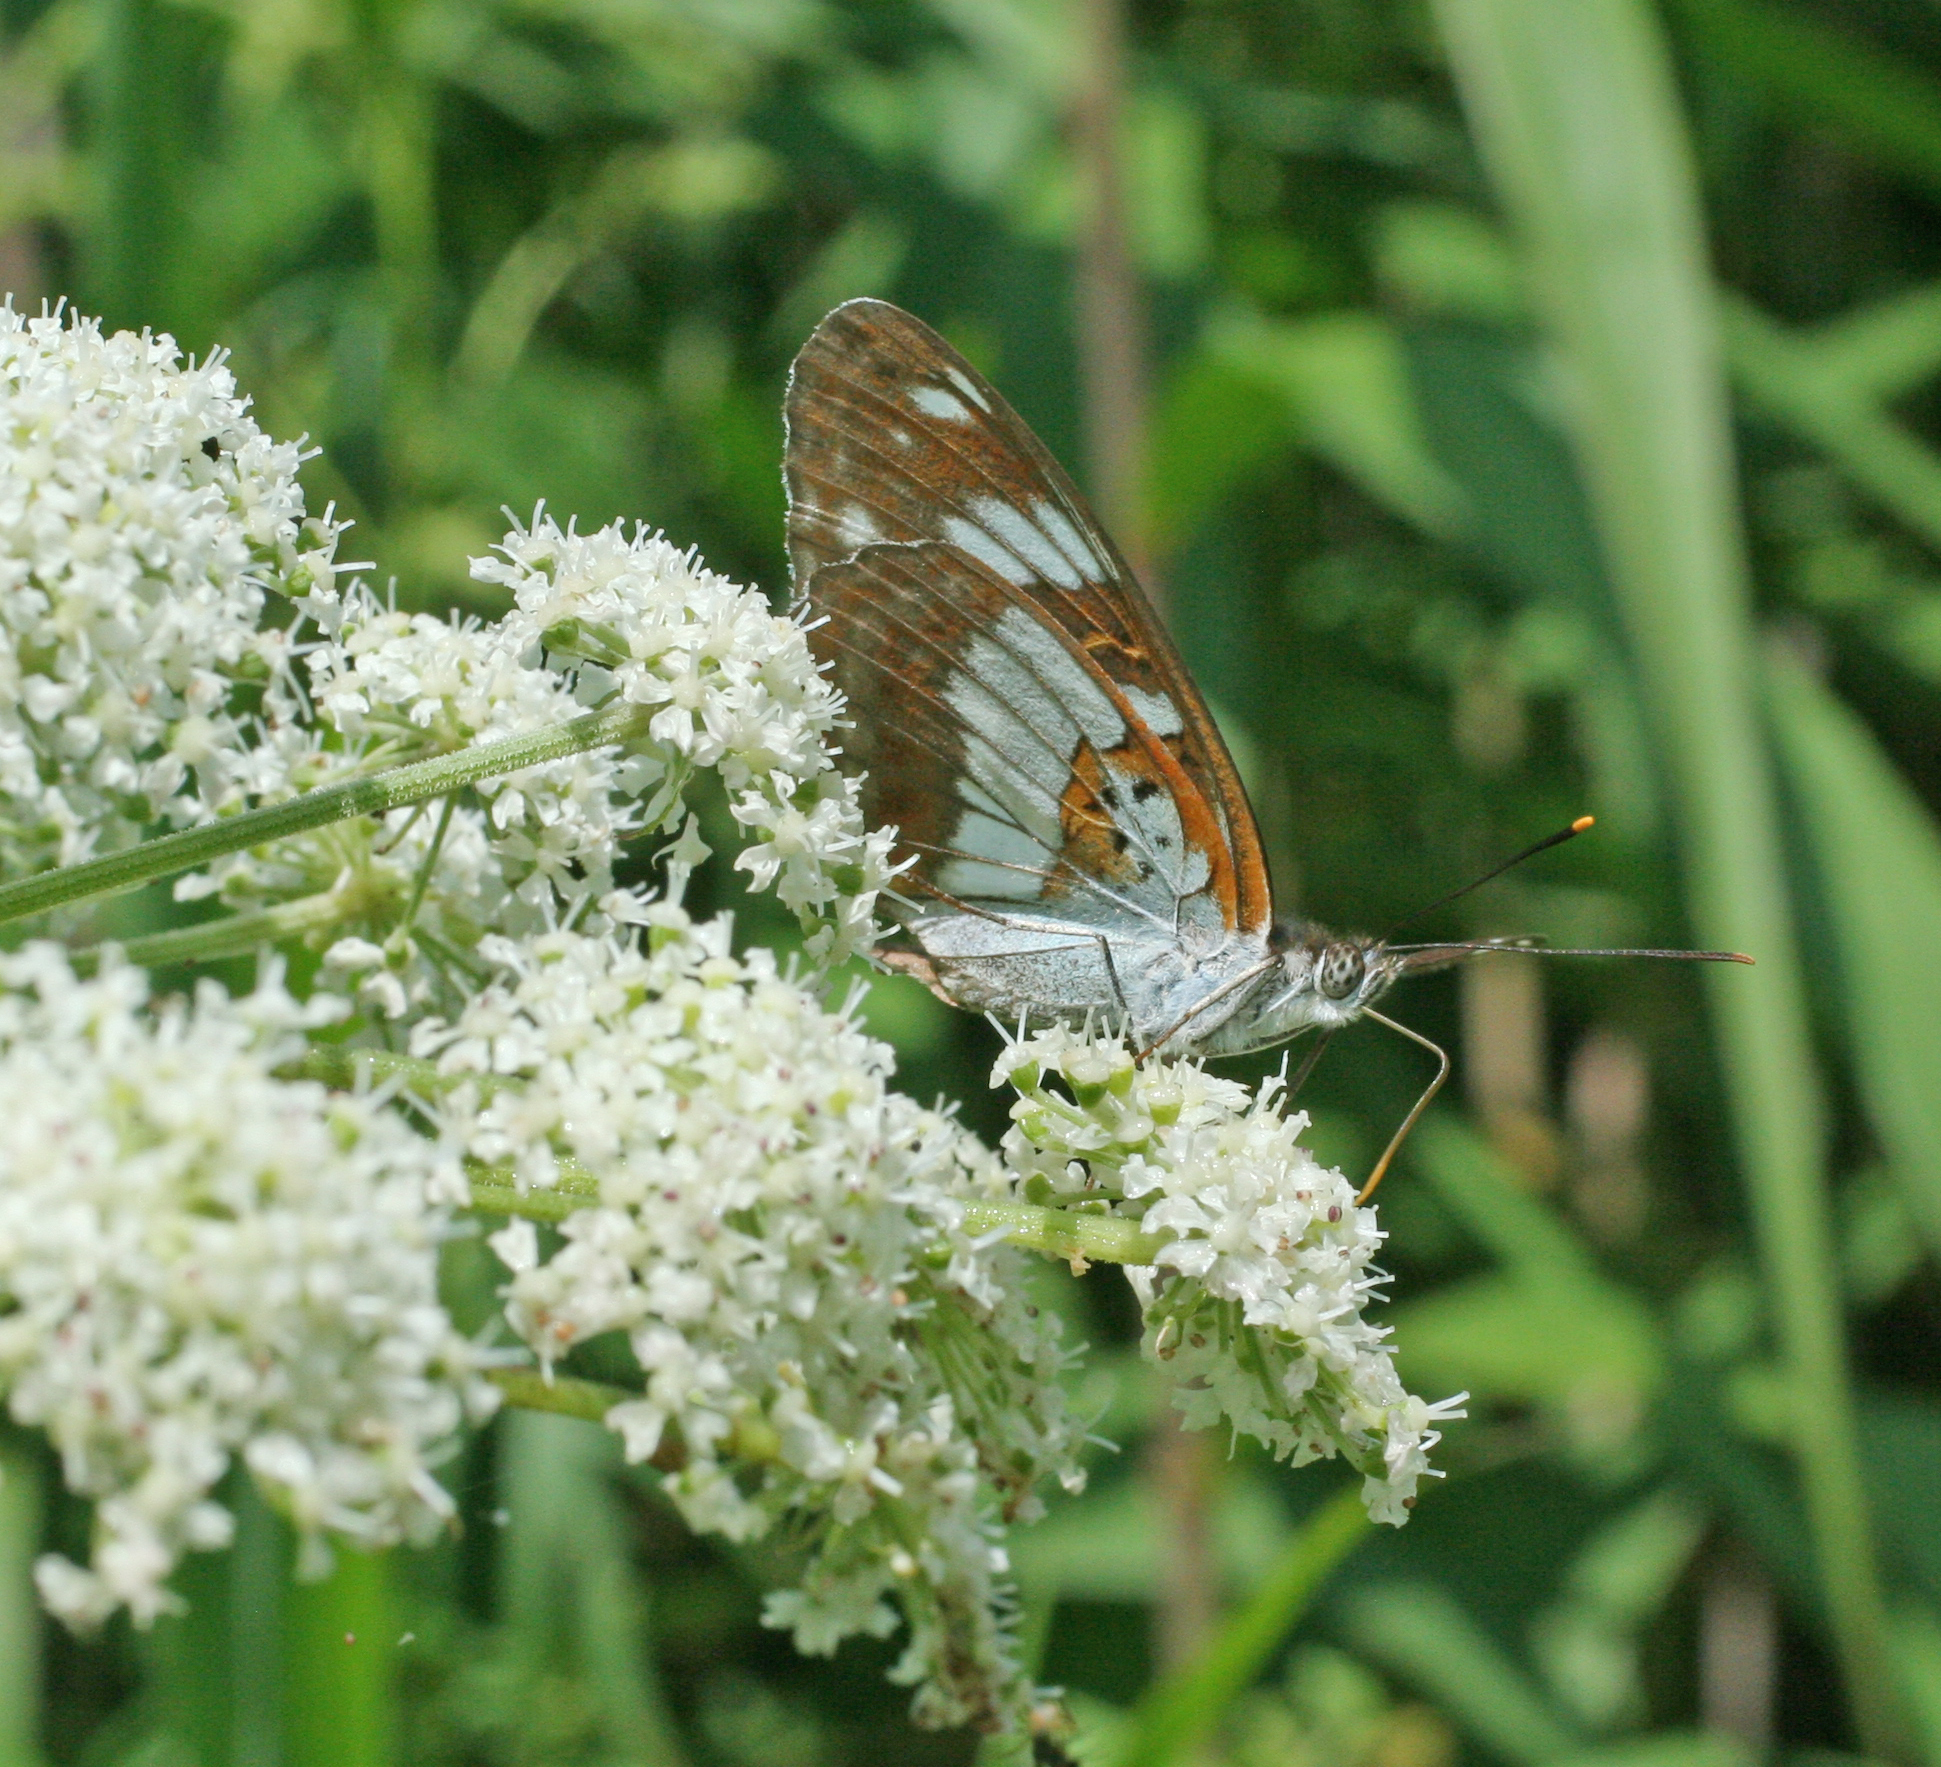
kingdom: Animalia
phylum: Arthropoda
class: Insecta
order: Lepidoptera
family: Nymphalidae
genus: Limenitis
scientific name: Limenitis doerriesi
